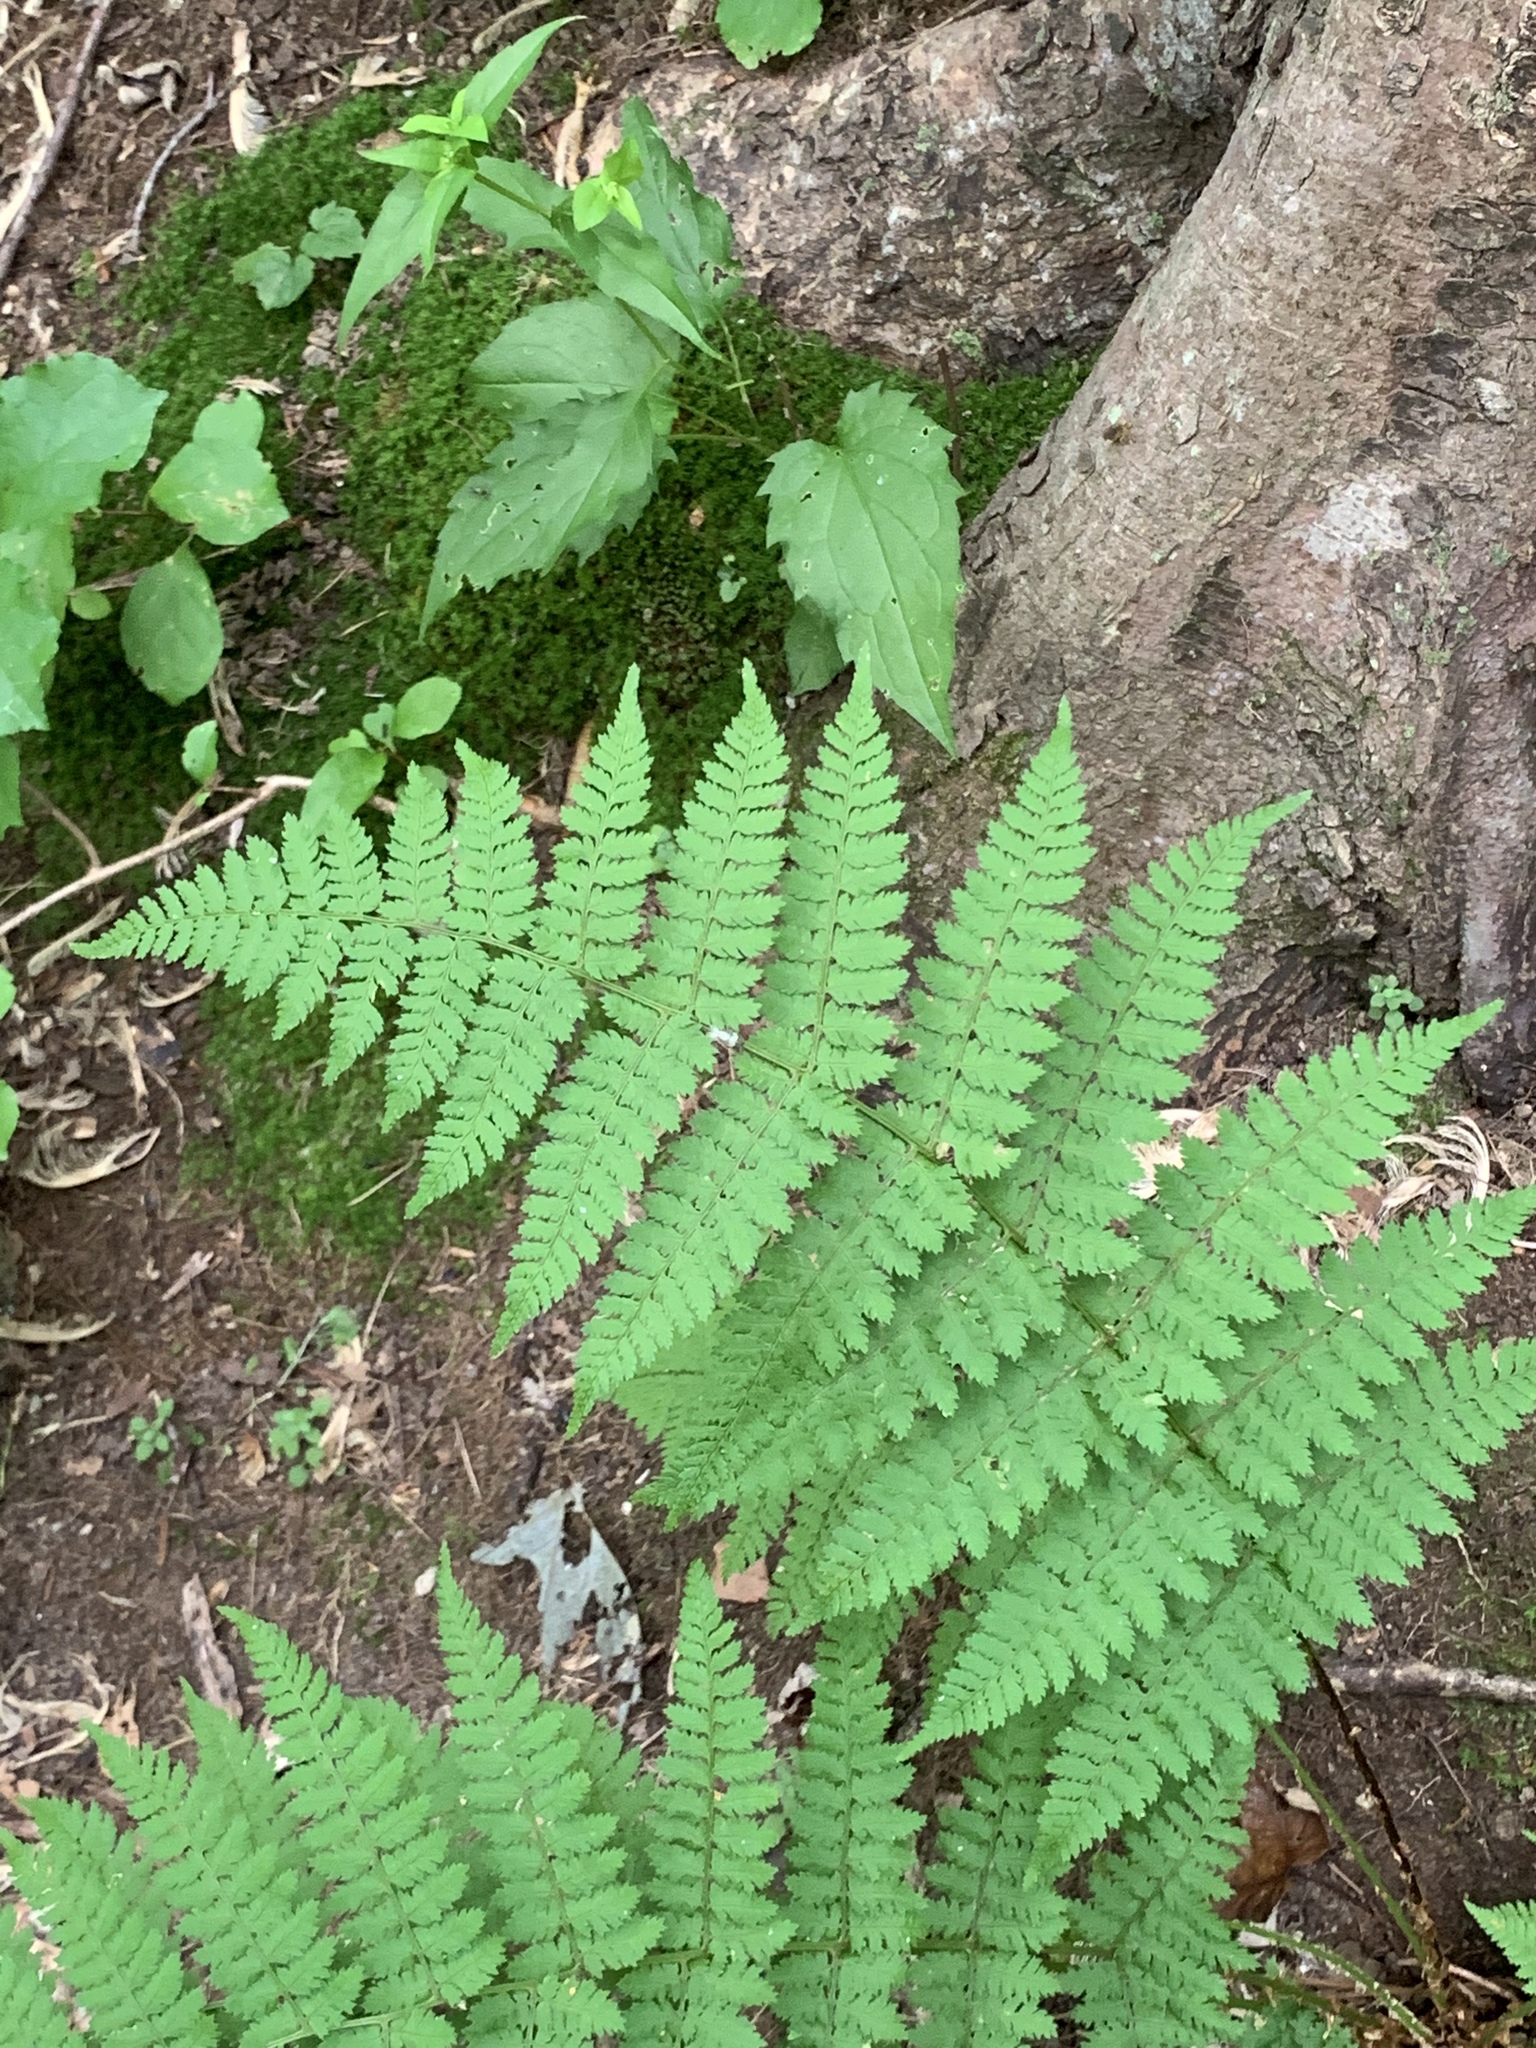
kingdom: Plantae
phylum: Tracheophyta
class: Polypodiopsida
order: Polypodiales
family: Dryopteridaceae
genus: Dryopteris
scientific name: Dryopteris intermedia
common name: Evergreen wood fern
